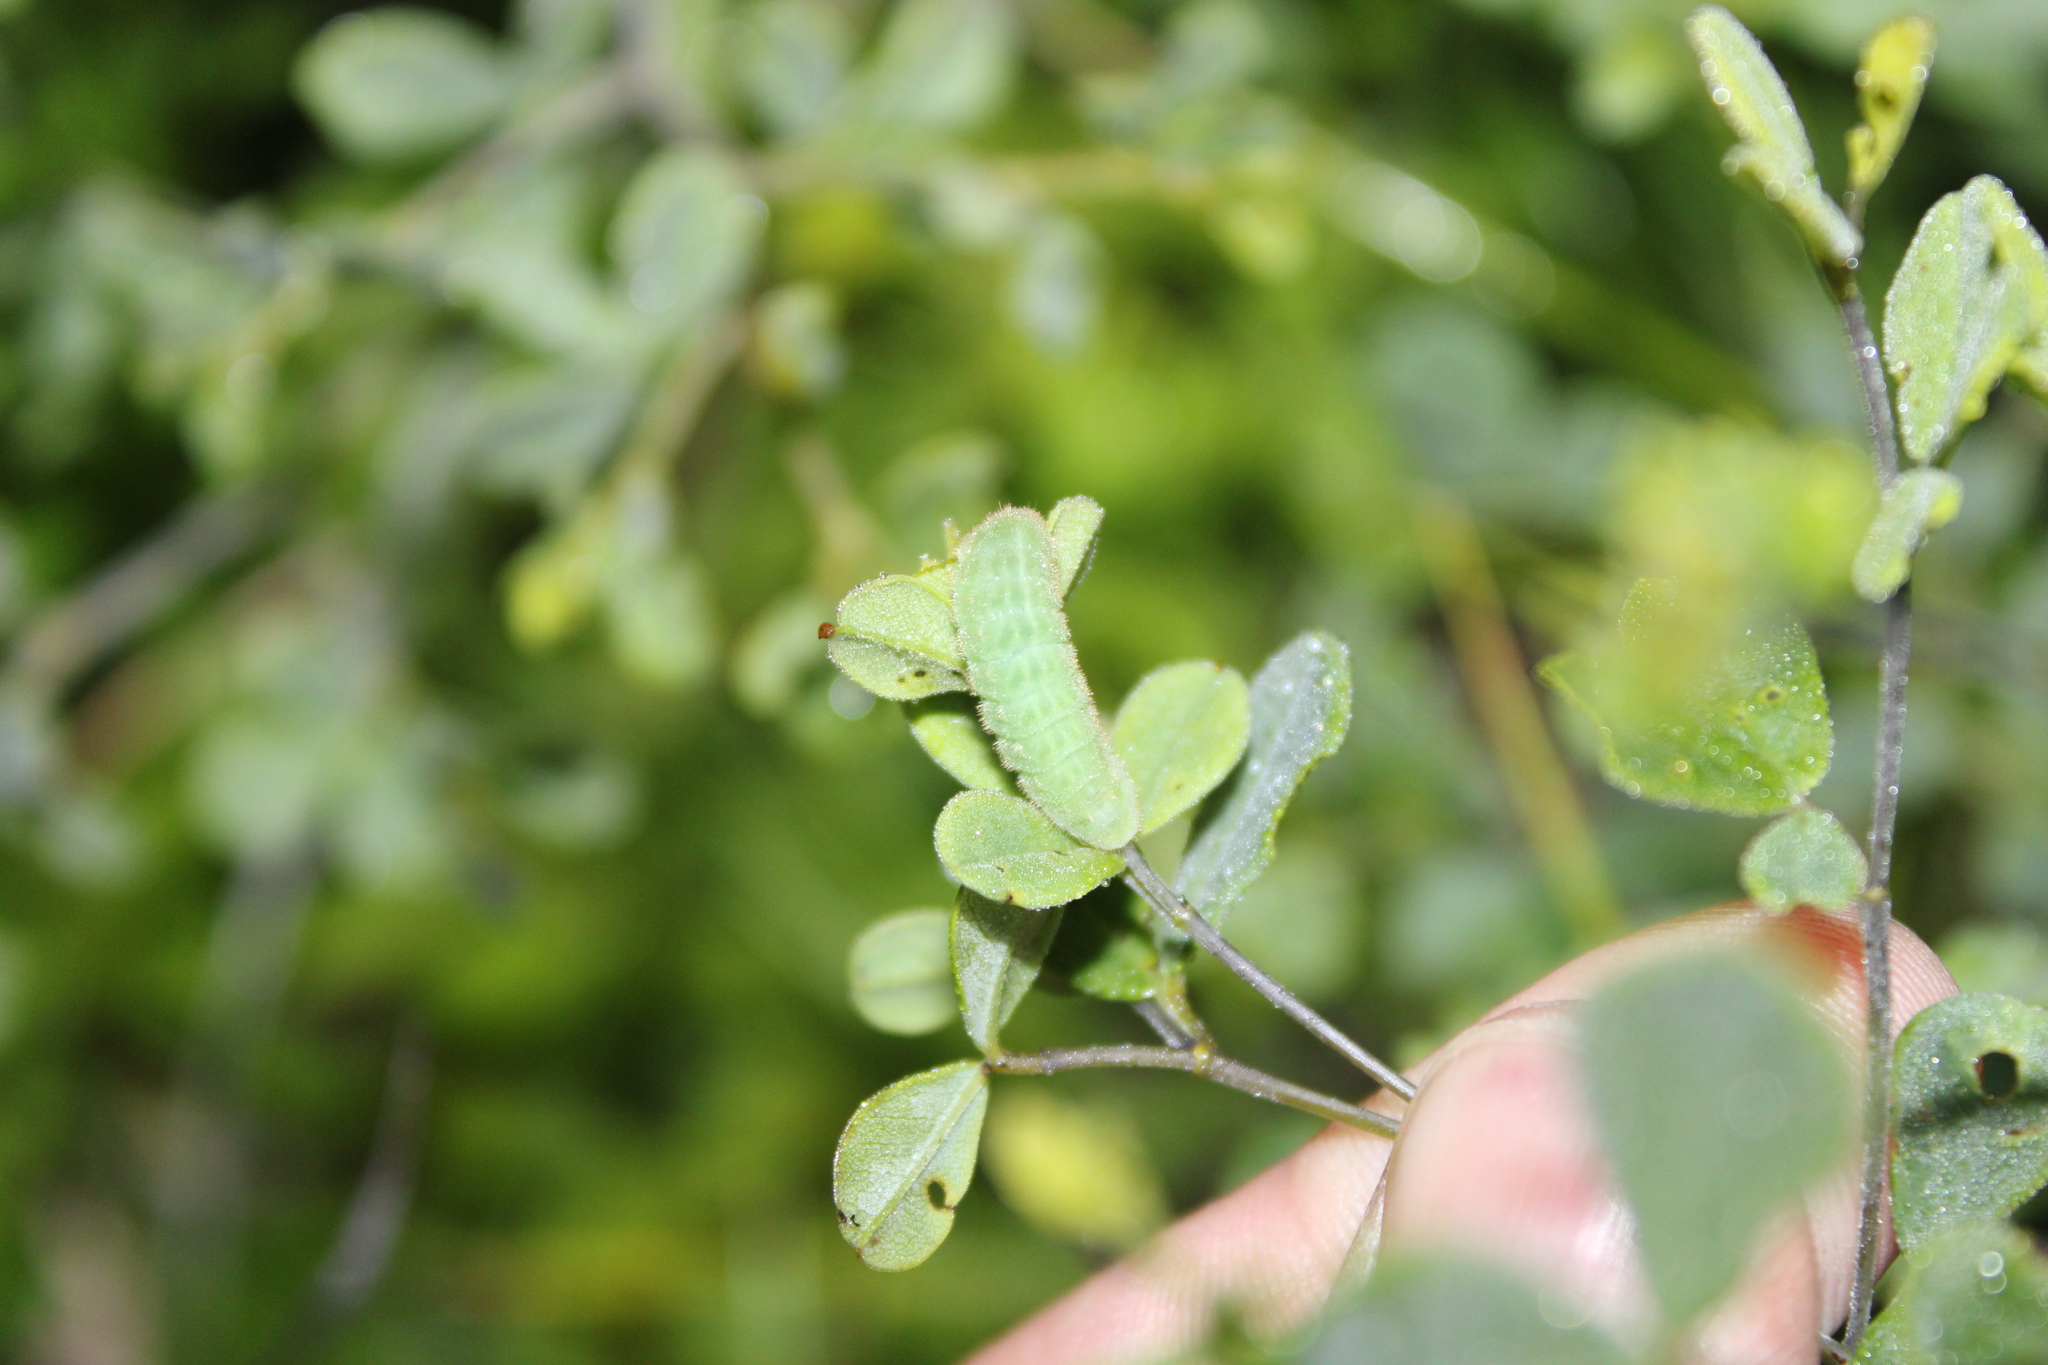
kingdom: Animalia
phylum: Arthropoda
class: Insecta
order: Lepidoptera
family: Lycaenidae
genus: Thecla
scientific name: Thecla irus
